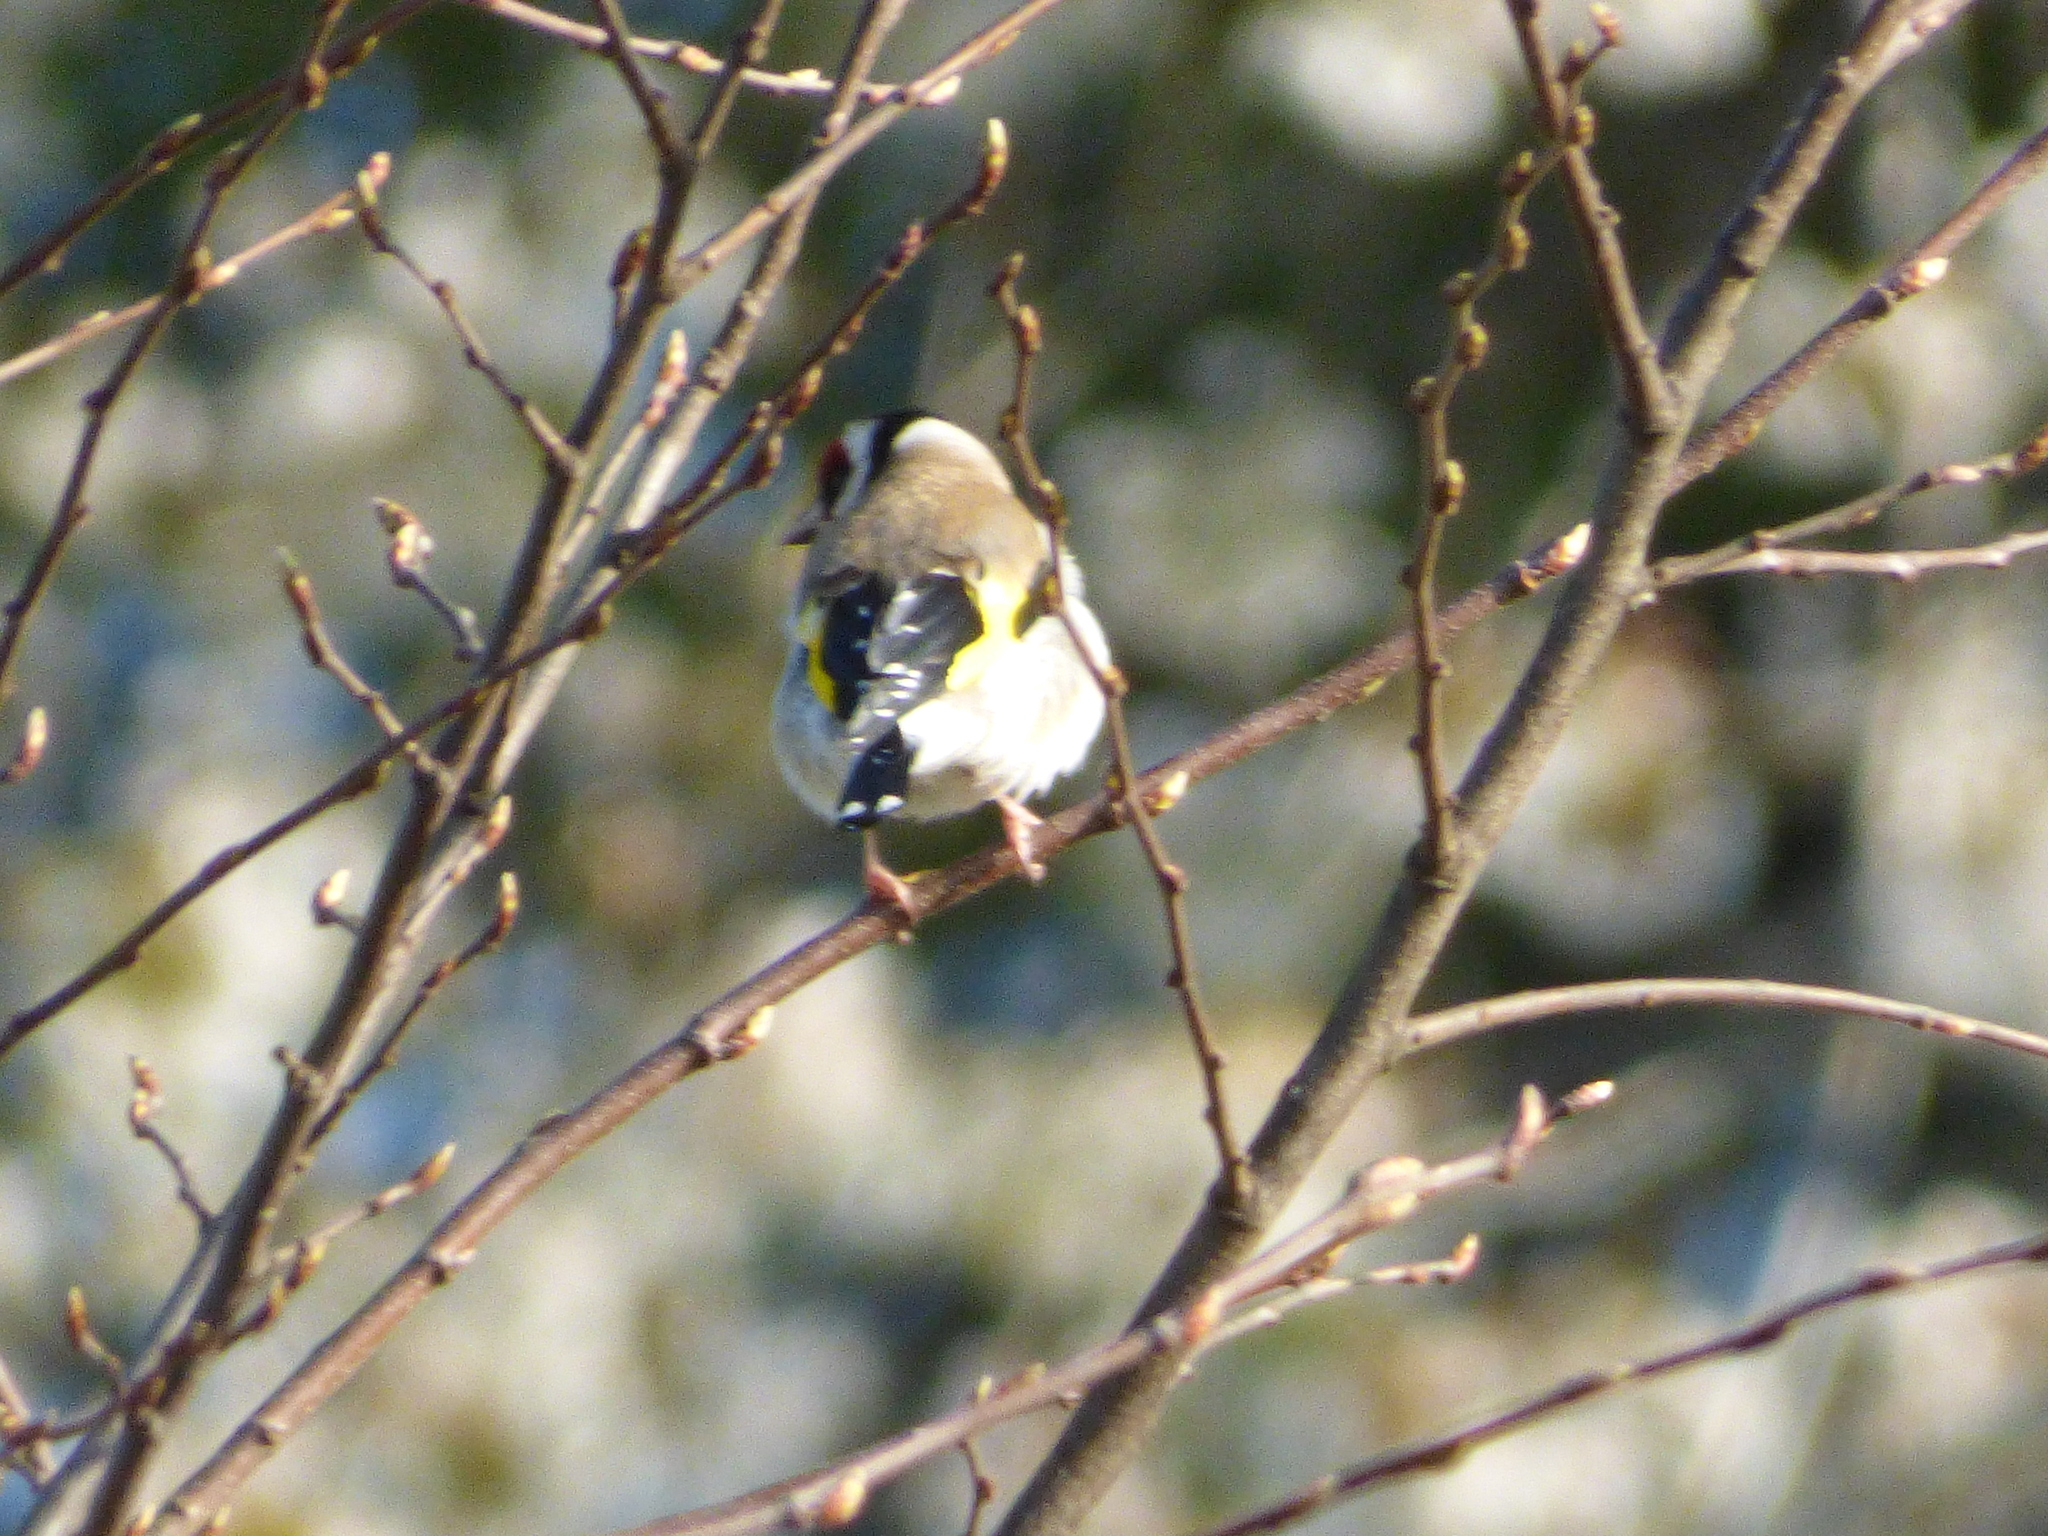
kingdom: Animalia
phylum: Chordata
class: Aves
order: Passeriformes
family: Fringillidae
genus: Carduelis
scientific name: Carduelis carduelis
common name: European goldfinch
